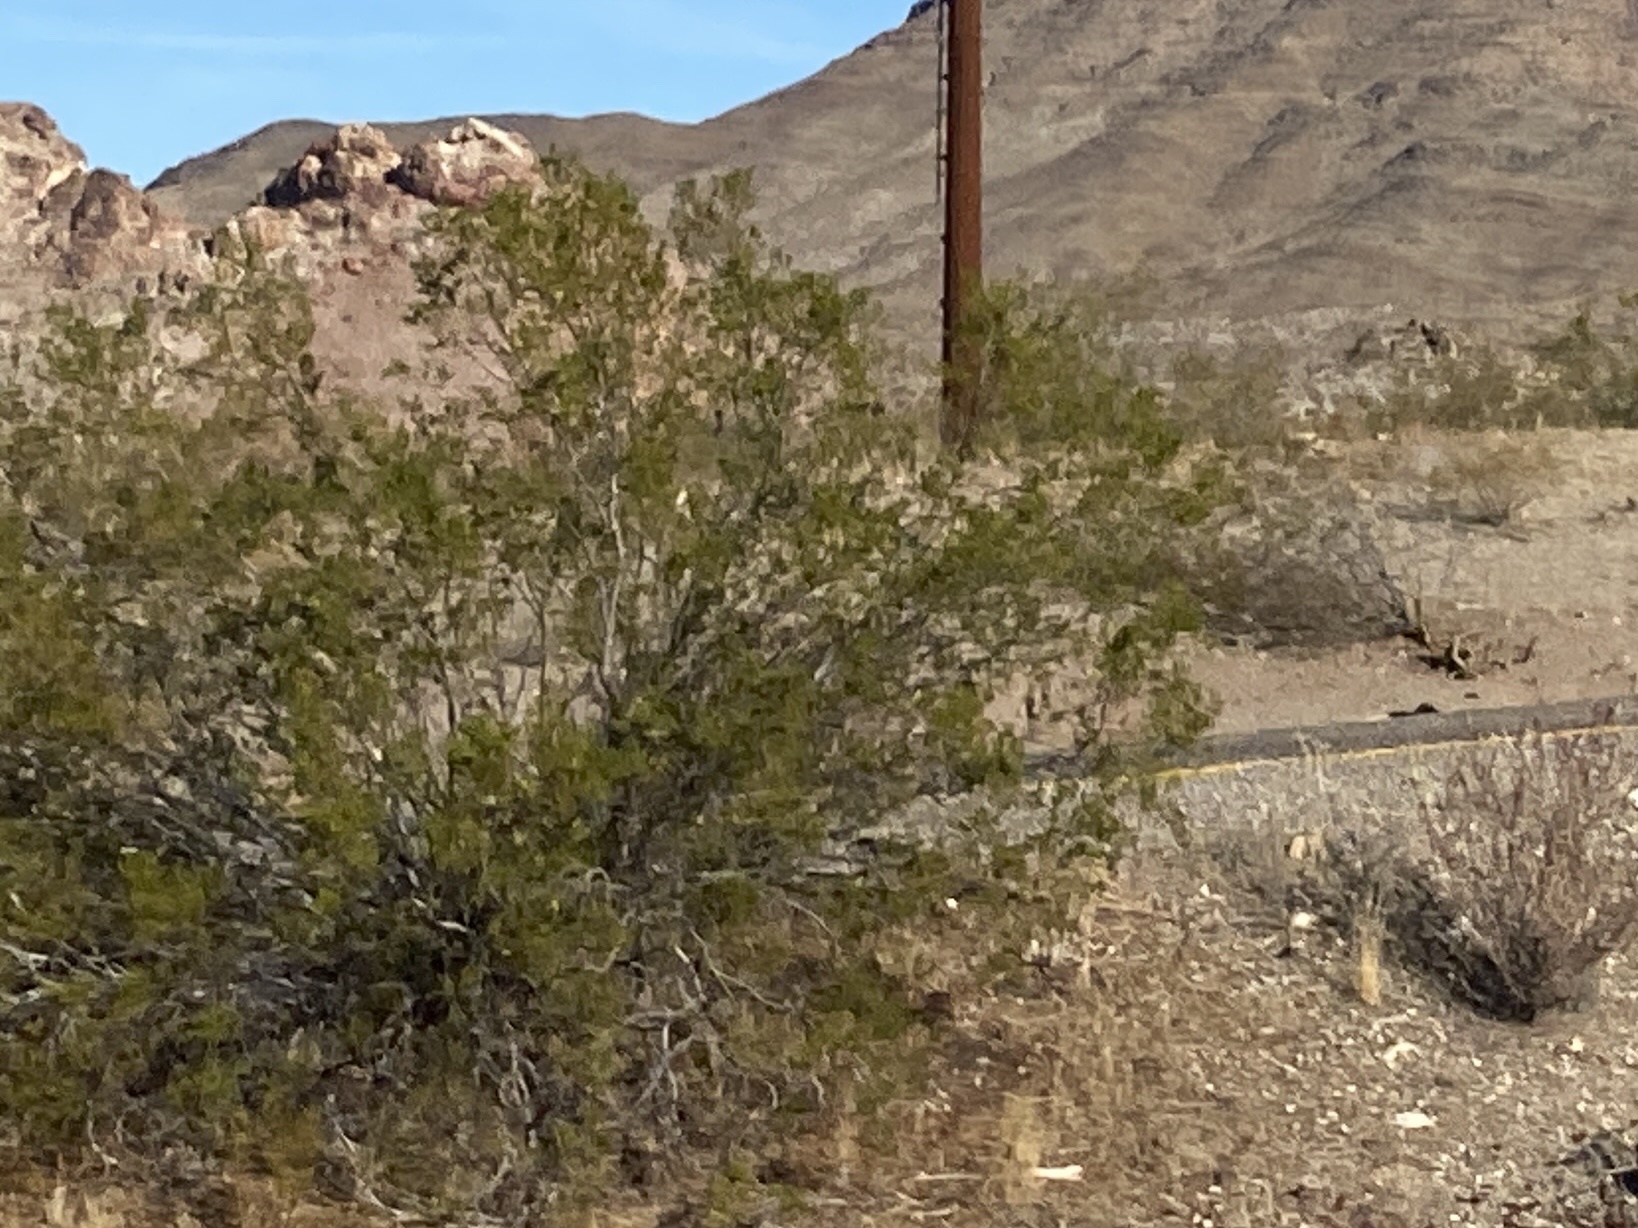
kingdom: Plantae
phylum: Tracheophyta
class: Magnoliopsida
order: Zygophyllales
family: Zygophyllaceae
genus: Larrea
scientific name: Larrea tridentata
